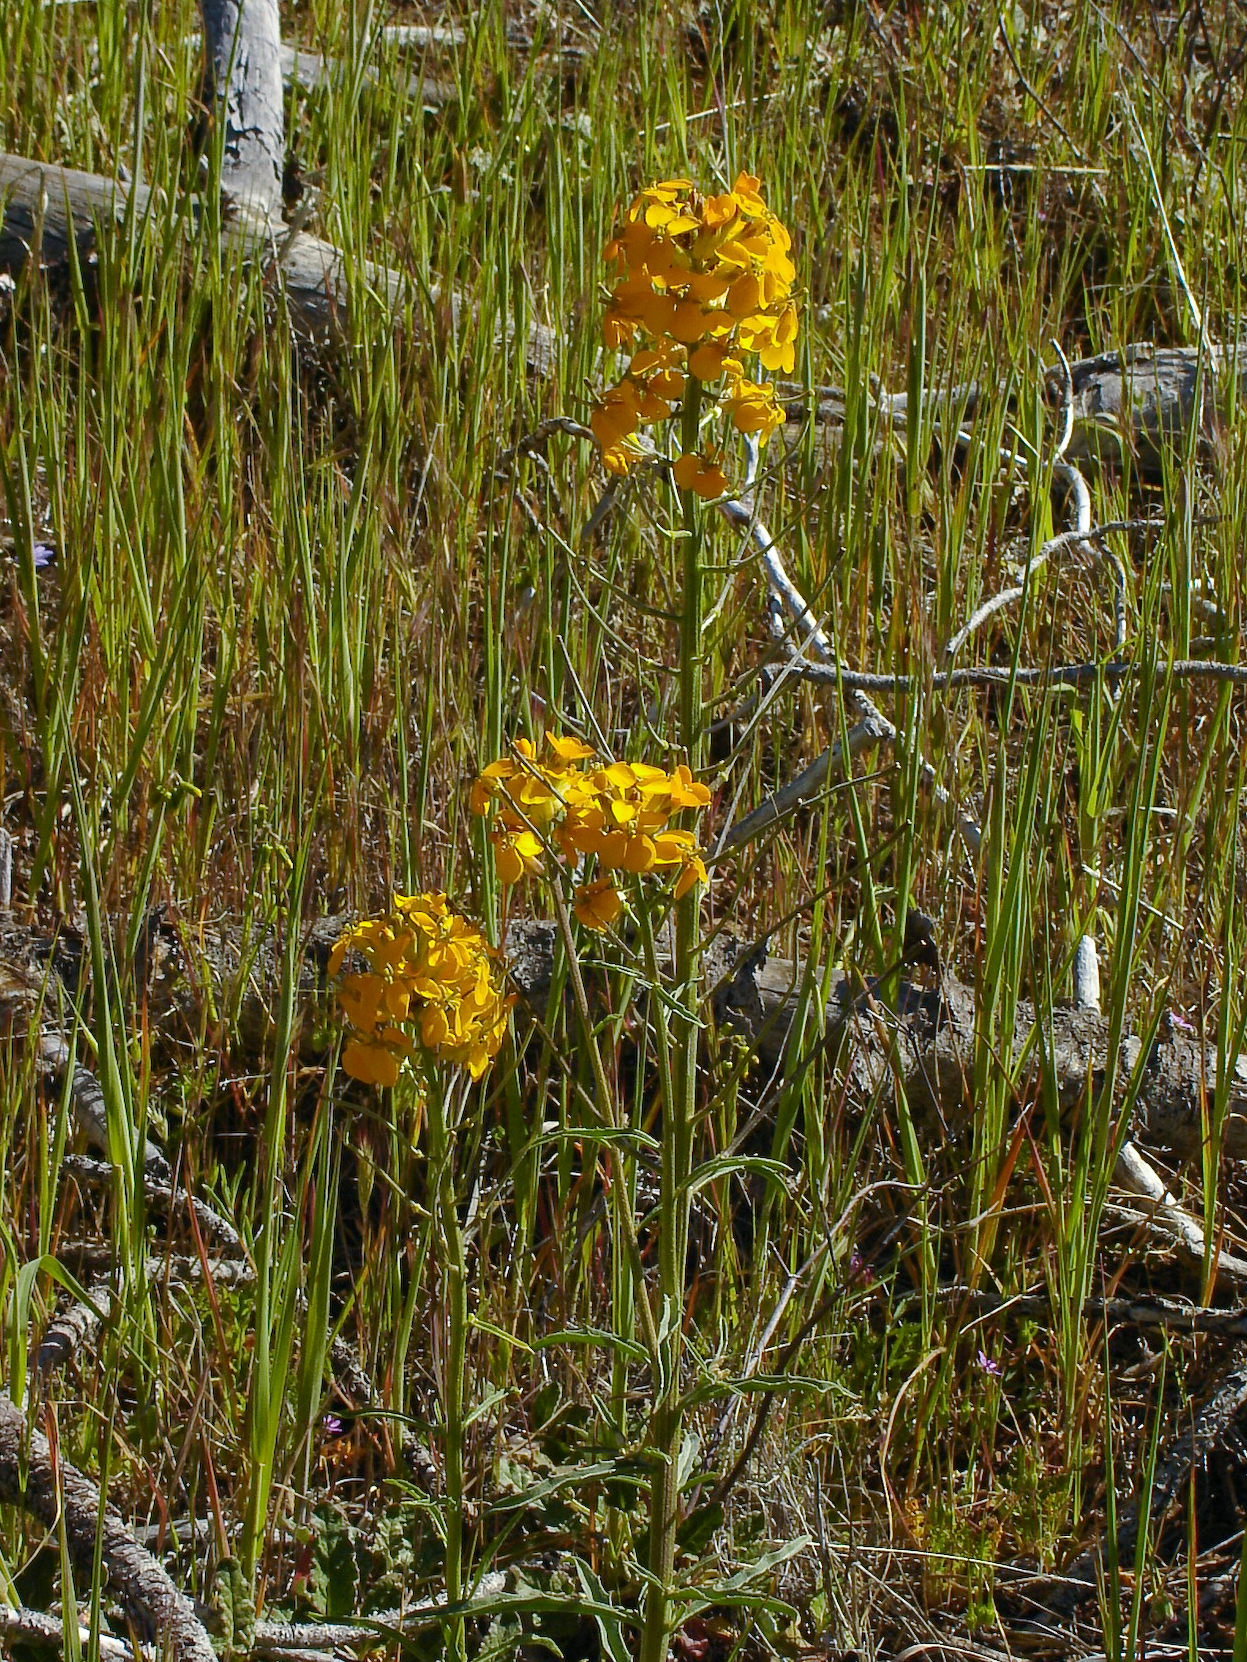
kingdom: Plantae
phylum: Tracheophyta
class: Magnoliopsida
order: Brassicales
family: Brassicaceae
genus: Erysimum
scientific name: Erysimum capitatum
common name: Western wallflower
